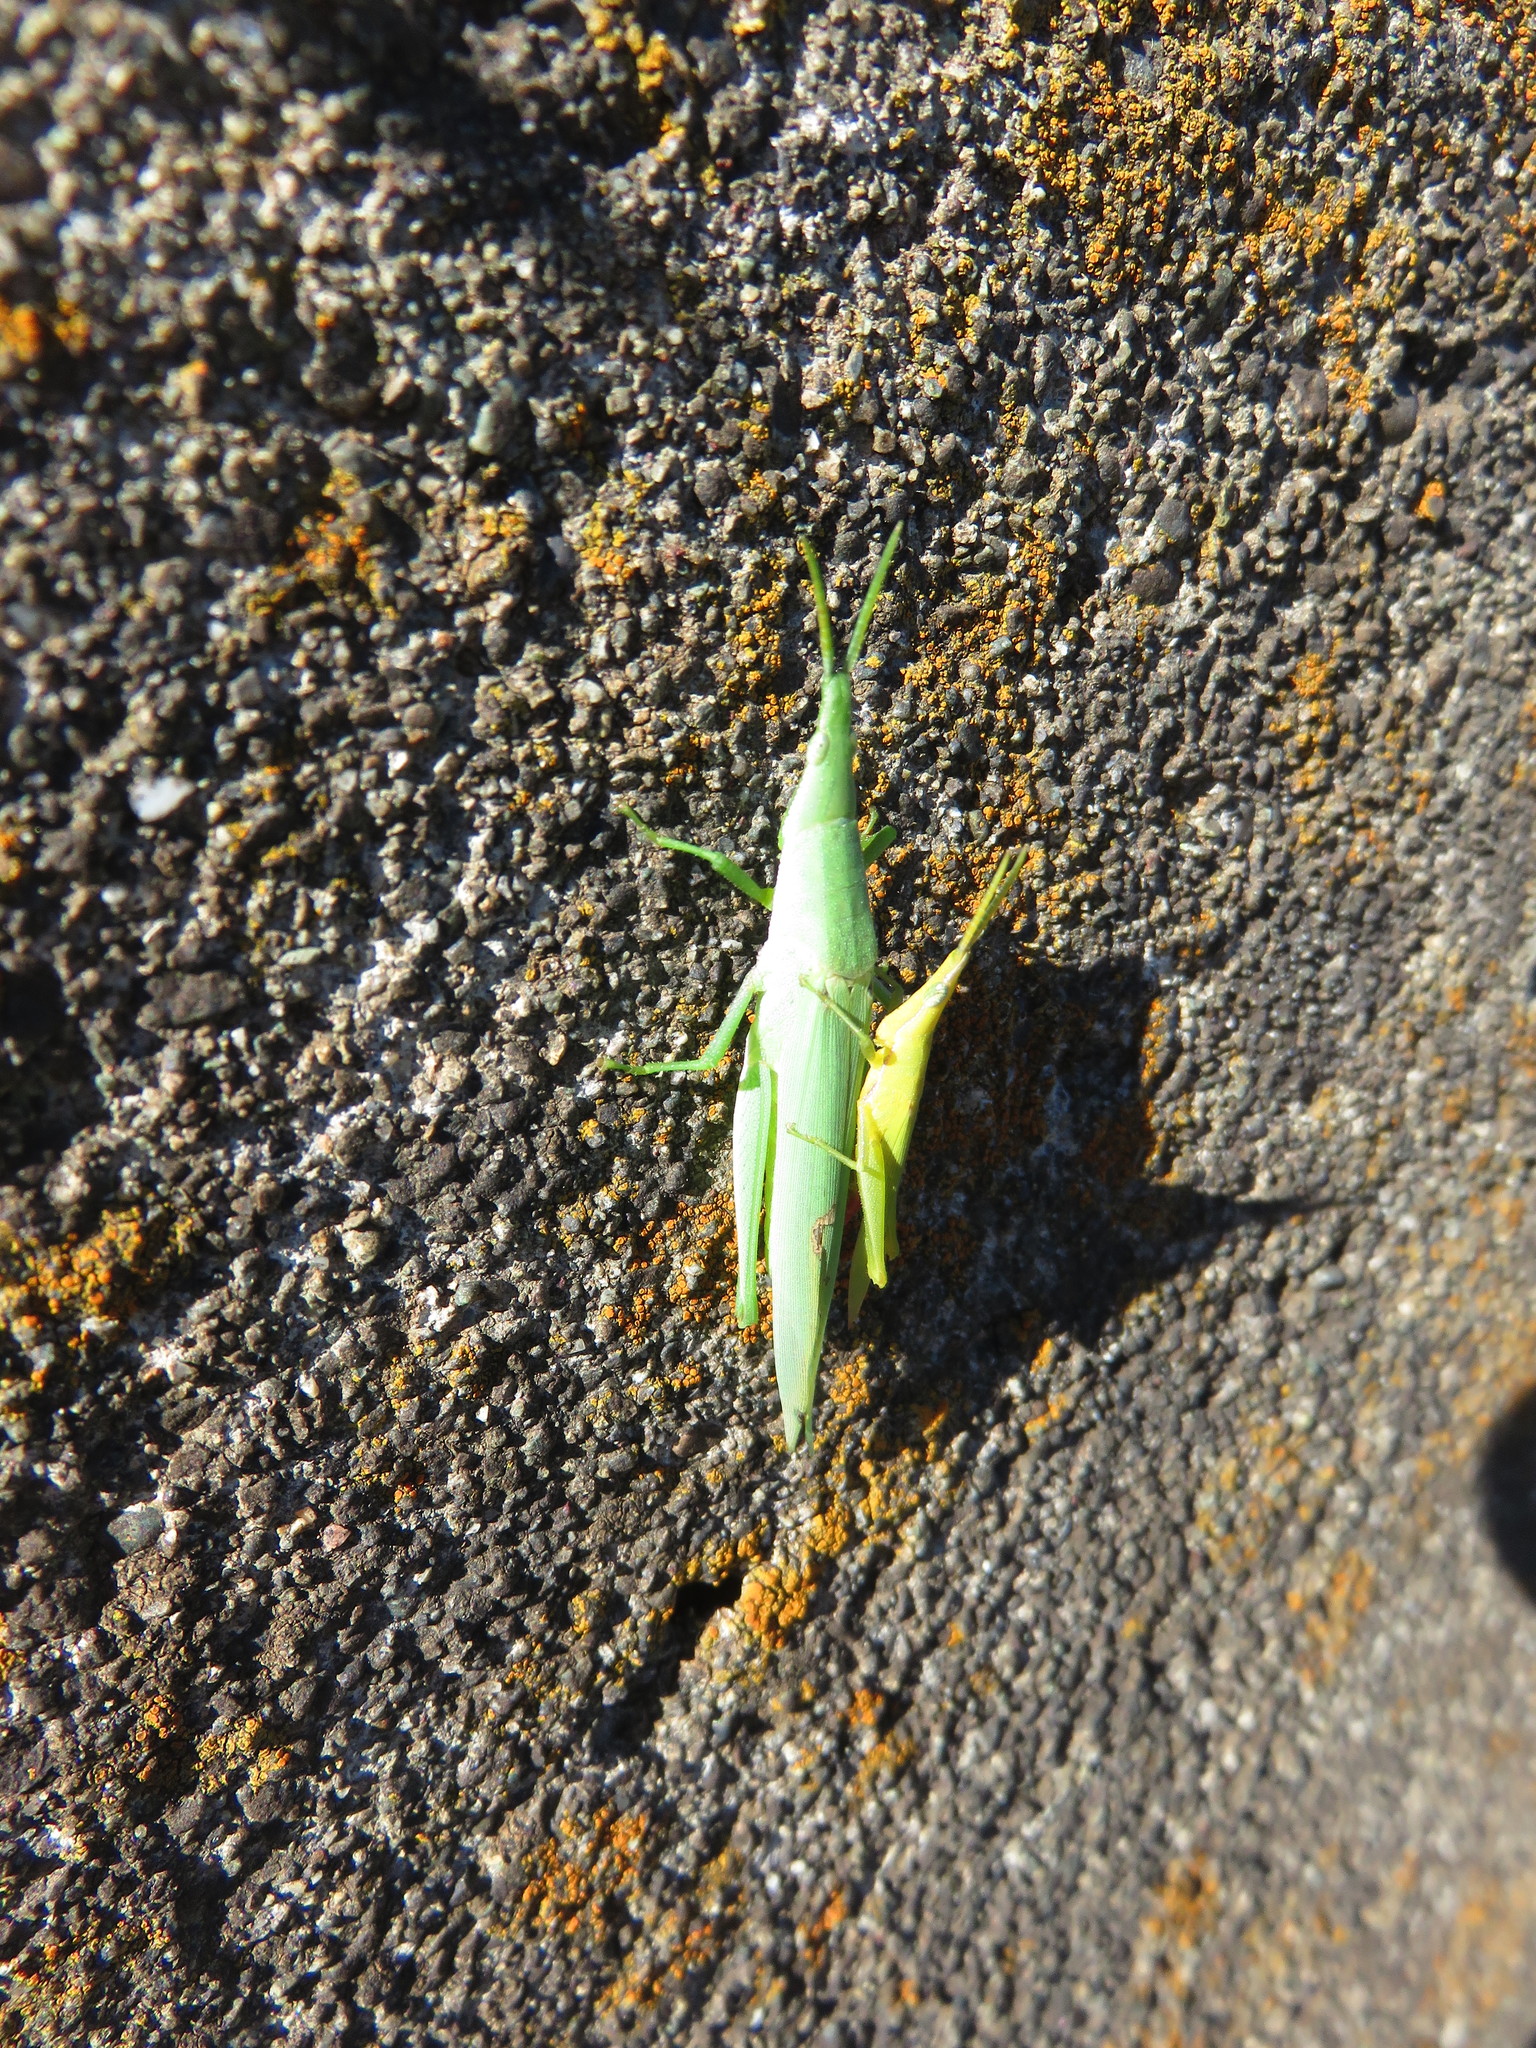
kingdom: Animalia
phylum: Arthropoda
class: Insecta
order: Orthoptera
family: Pyrgomorphidae
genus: Atractomorpha
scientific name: Atractomorpha lata
